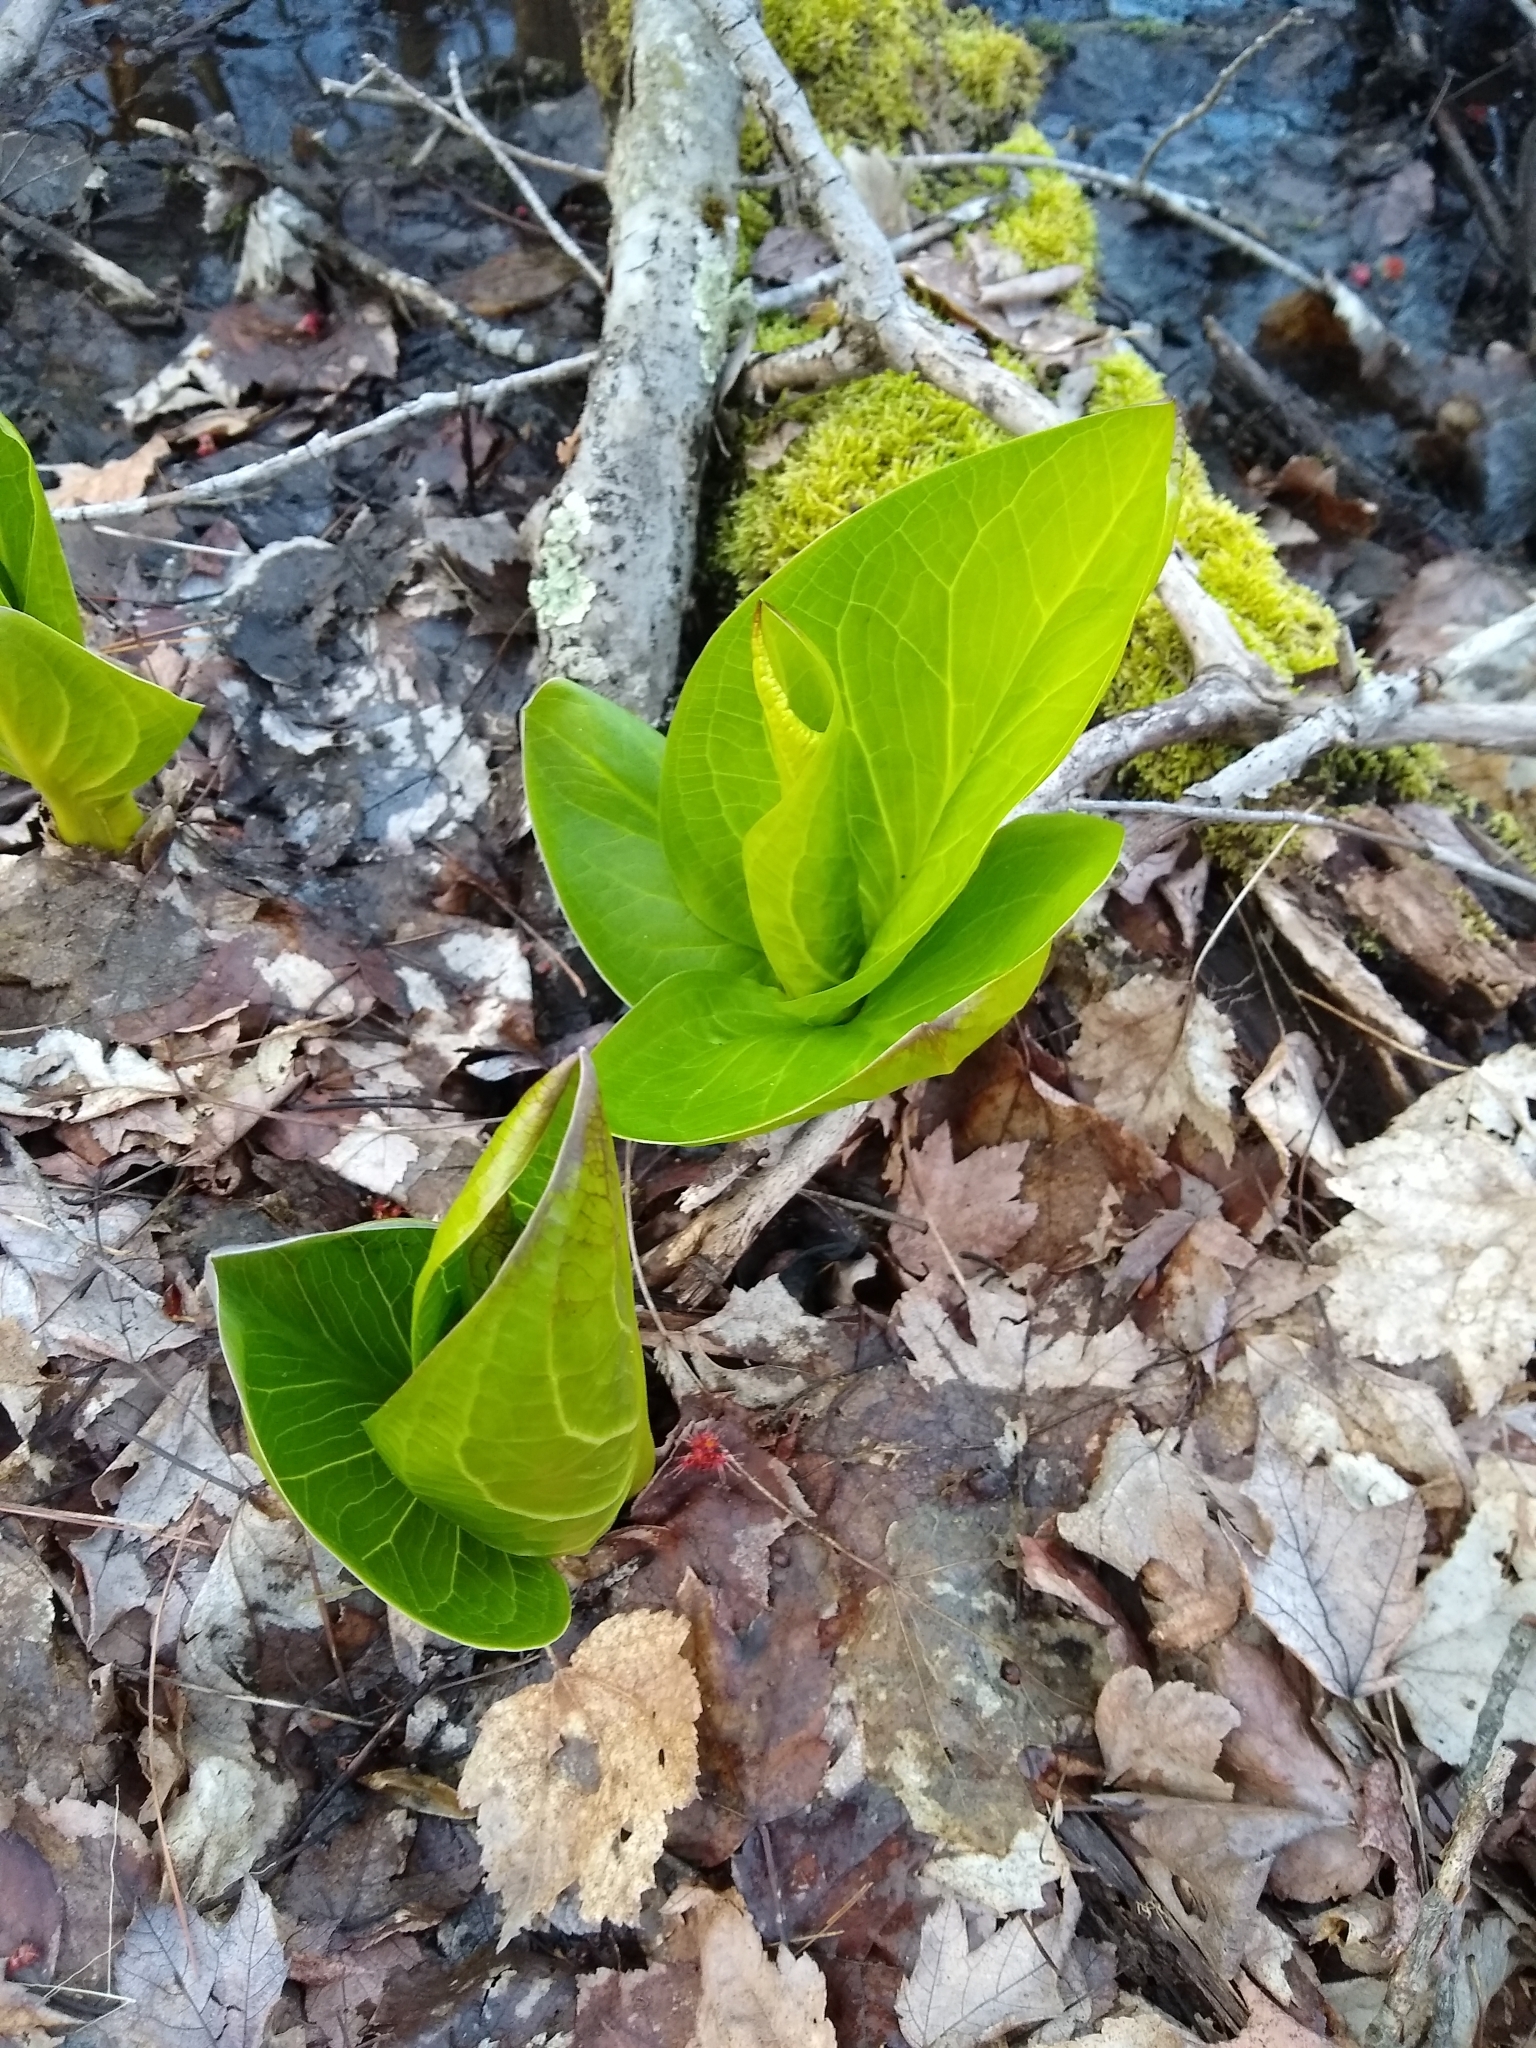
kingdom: Plantae
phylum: Tracheophyta
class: Liliopsida
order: Alismatales
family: Araceae
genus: Symplocarpus
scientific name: Symplocarpus foetidus
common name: Eastern skunk cabbage
